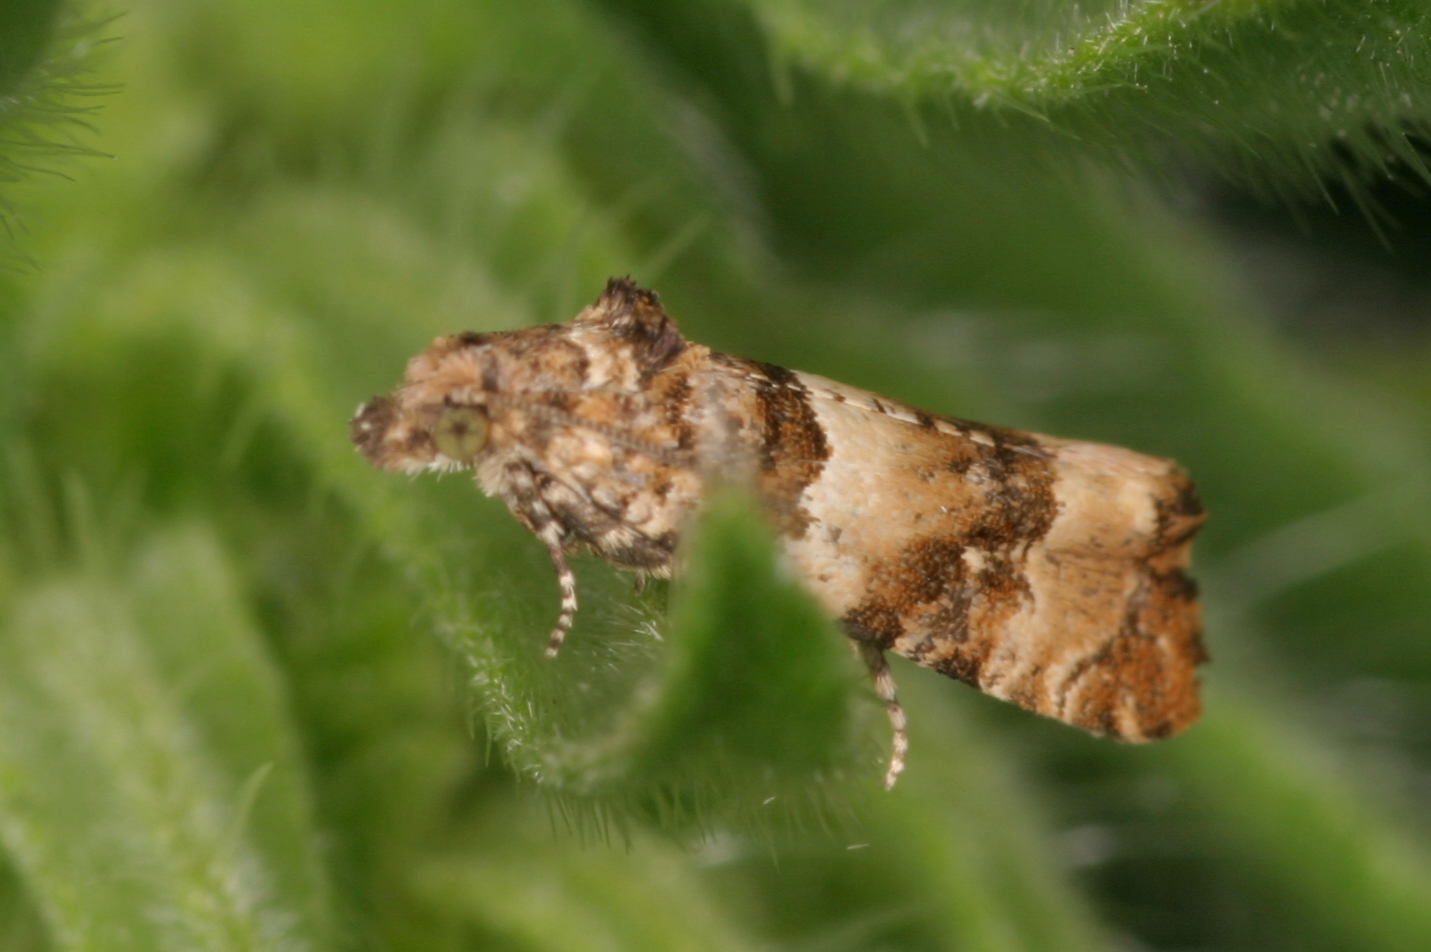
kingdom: Animalia
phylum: Arthropoda
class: Insecta
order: Lepidoptera
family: Tortricidae
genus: Lobesia
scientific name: Lobesia artemisiana
